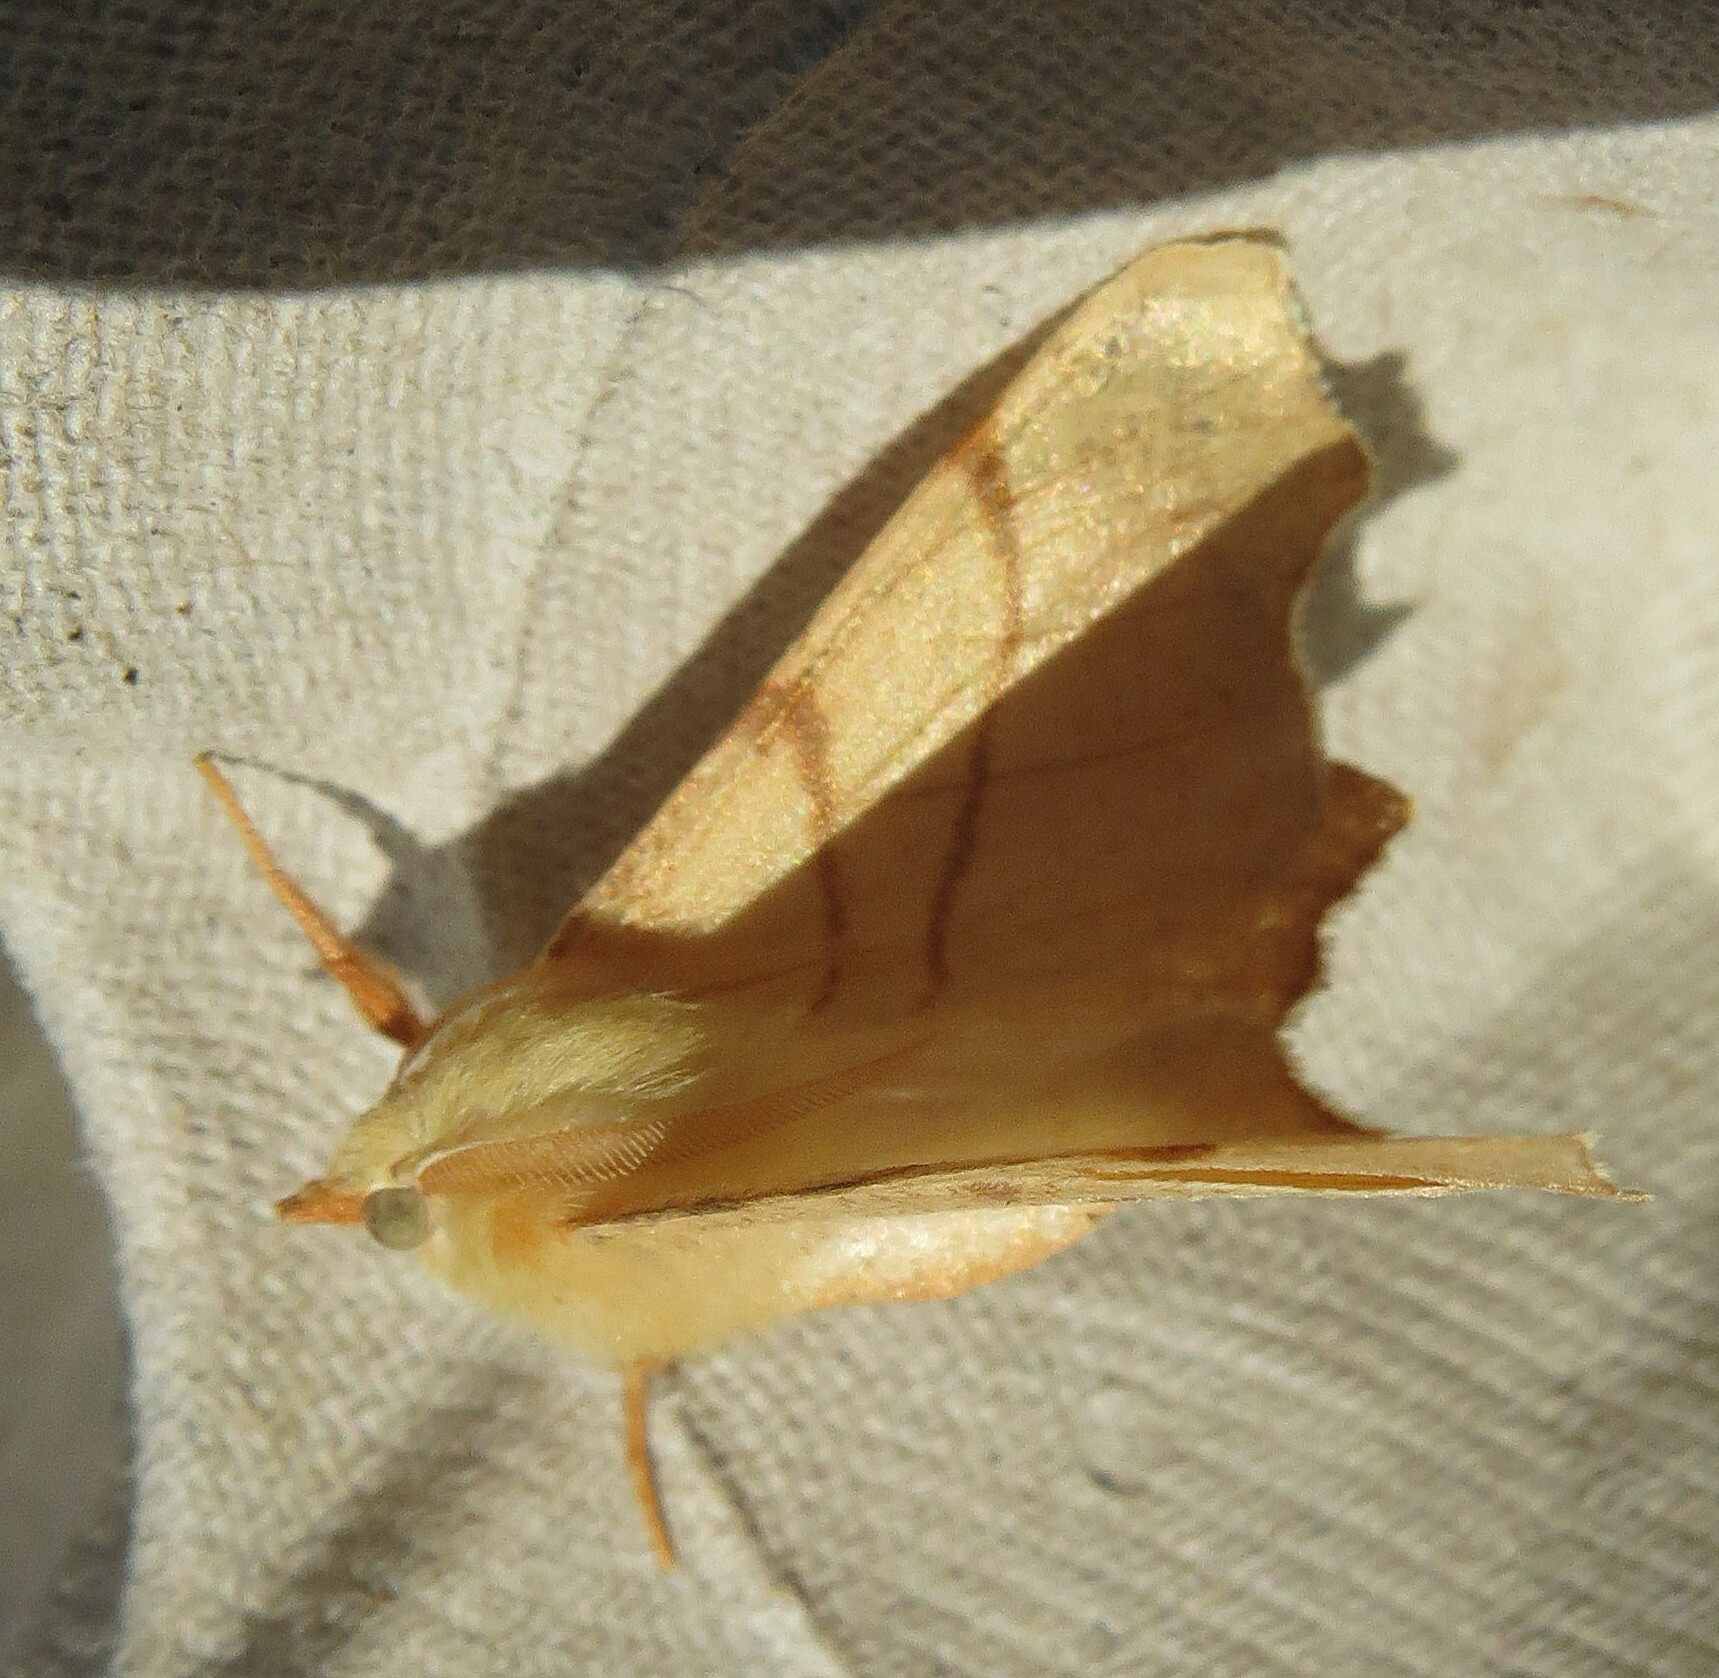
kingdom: Animalia
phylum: Arthropoda
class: Insecta
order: Lepidoptera
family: Geometridae
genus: Ennomos
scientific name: Ennomos erosaria
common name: September thorn
